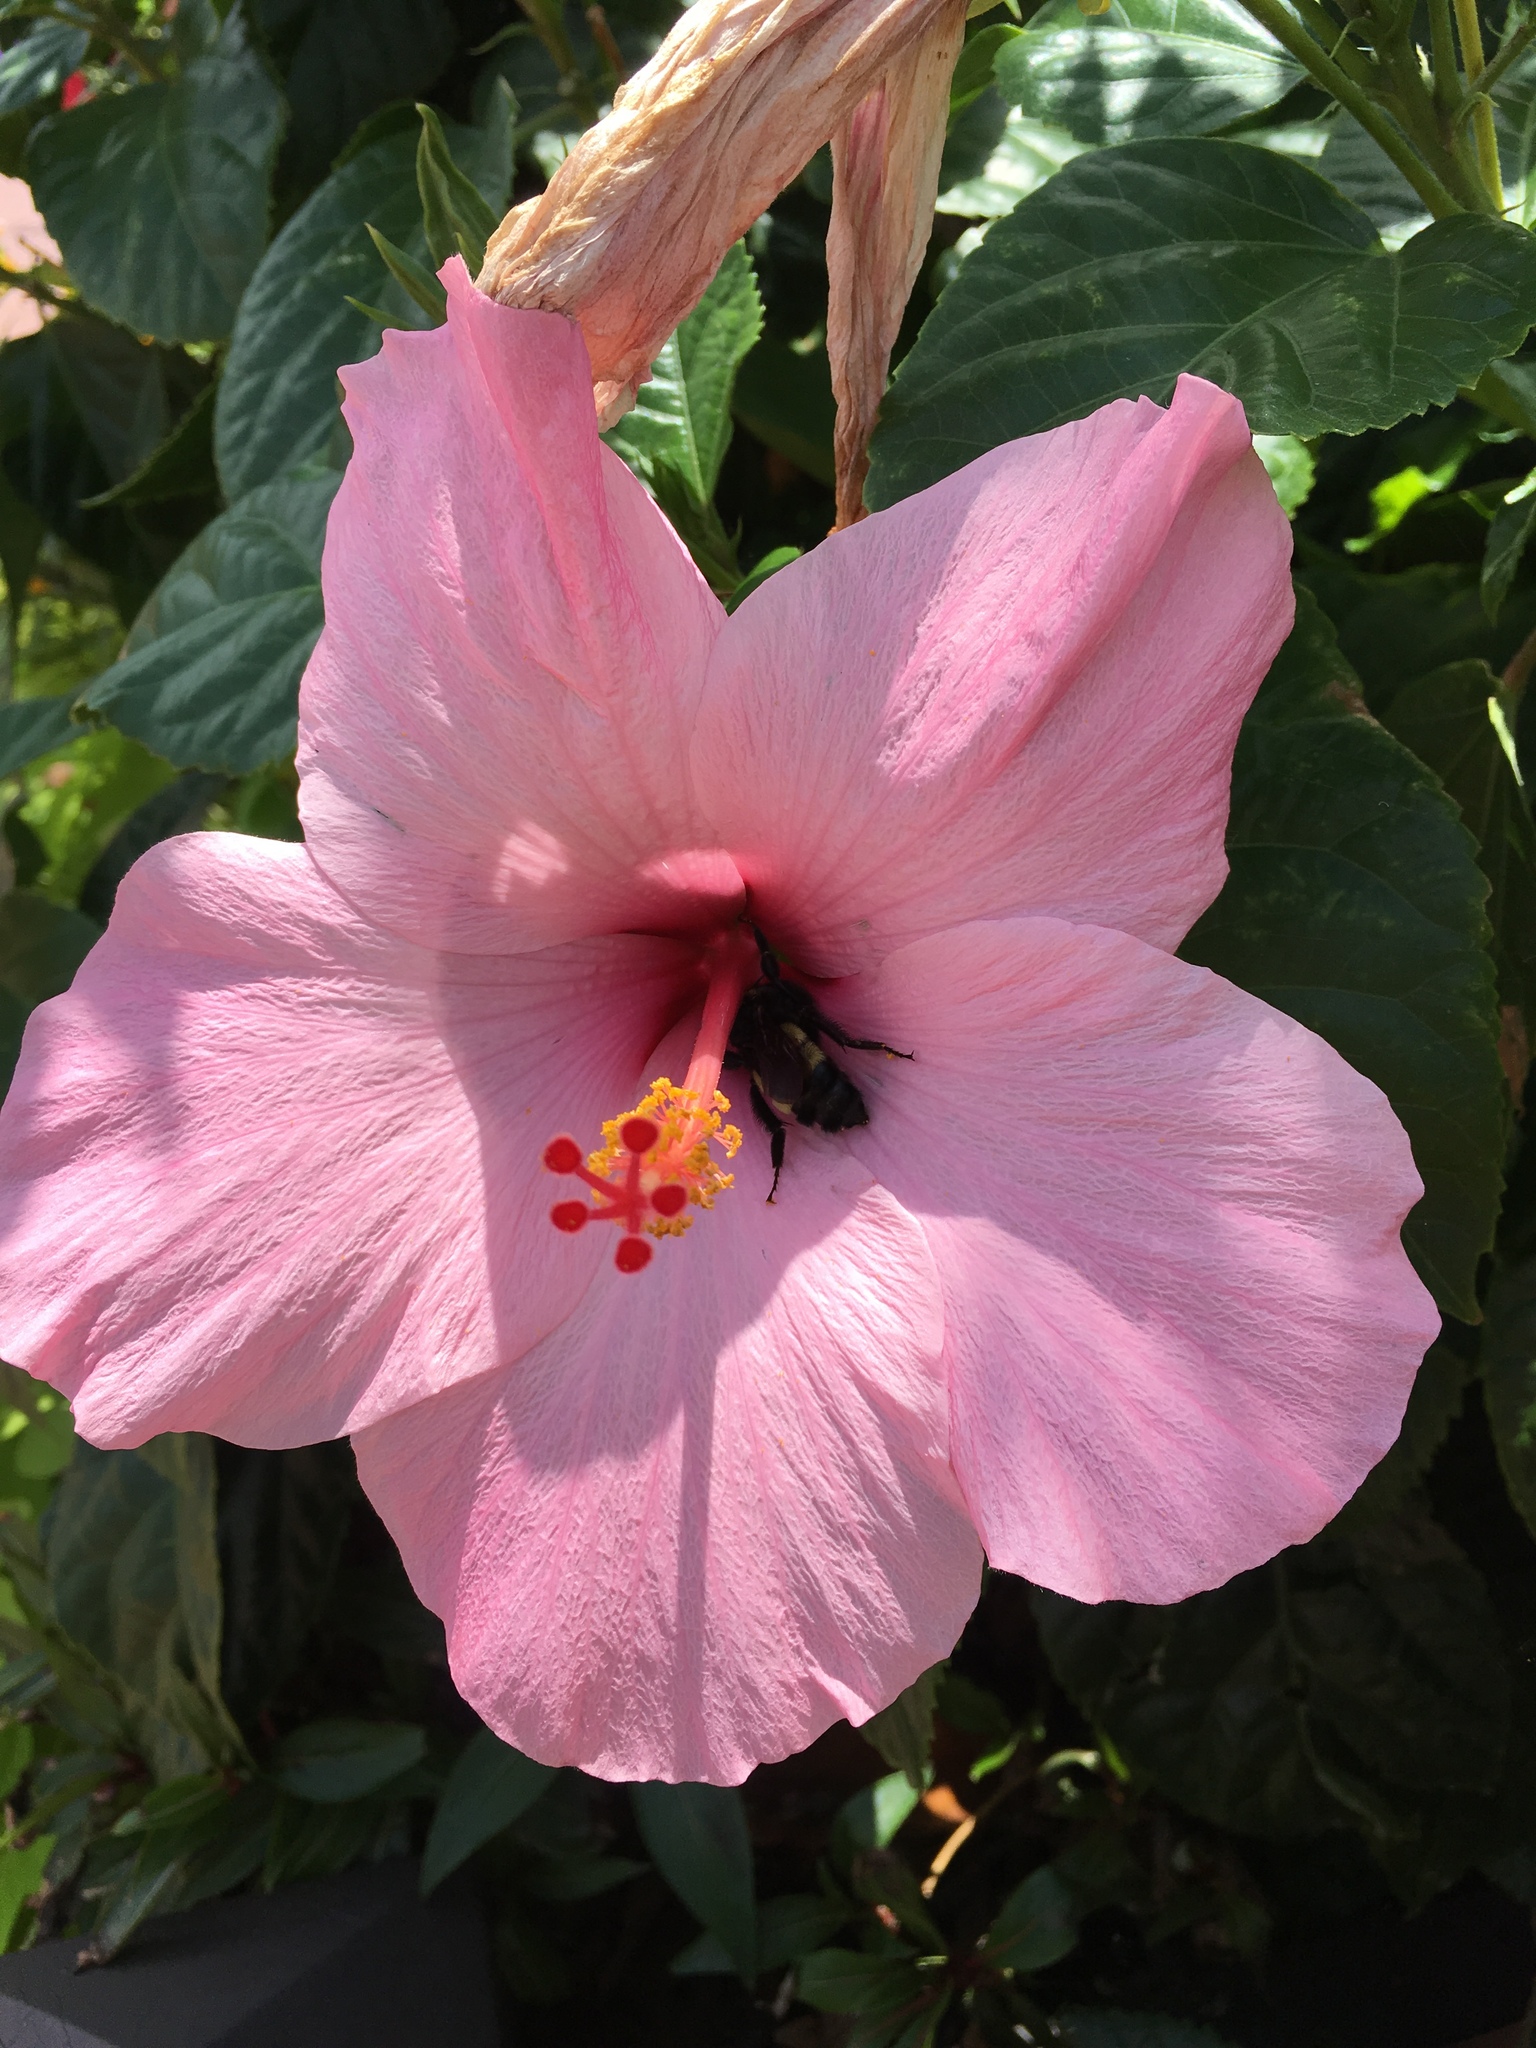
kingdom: Animalia
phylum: Arthropoda
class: Insecta
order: Hymenoptera
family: Apidae
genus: Bombus
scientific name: Bombus pensylvanicus
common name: Bumble bee
